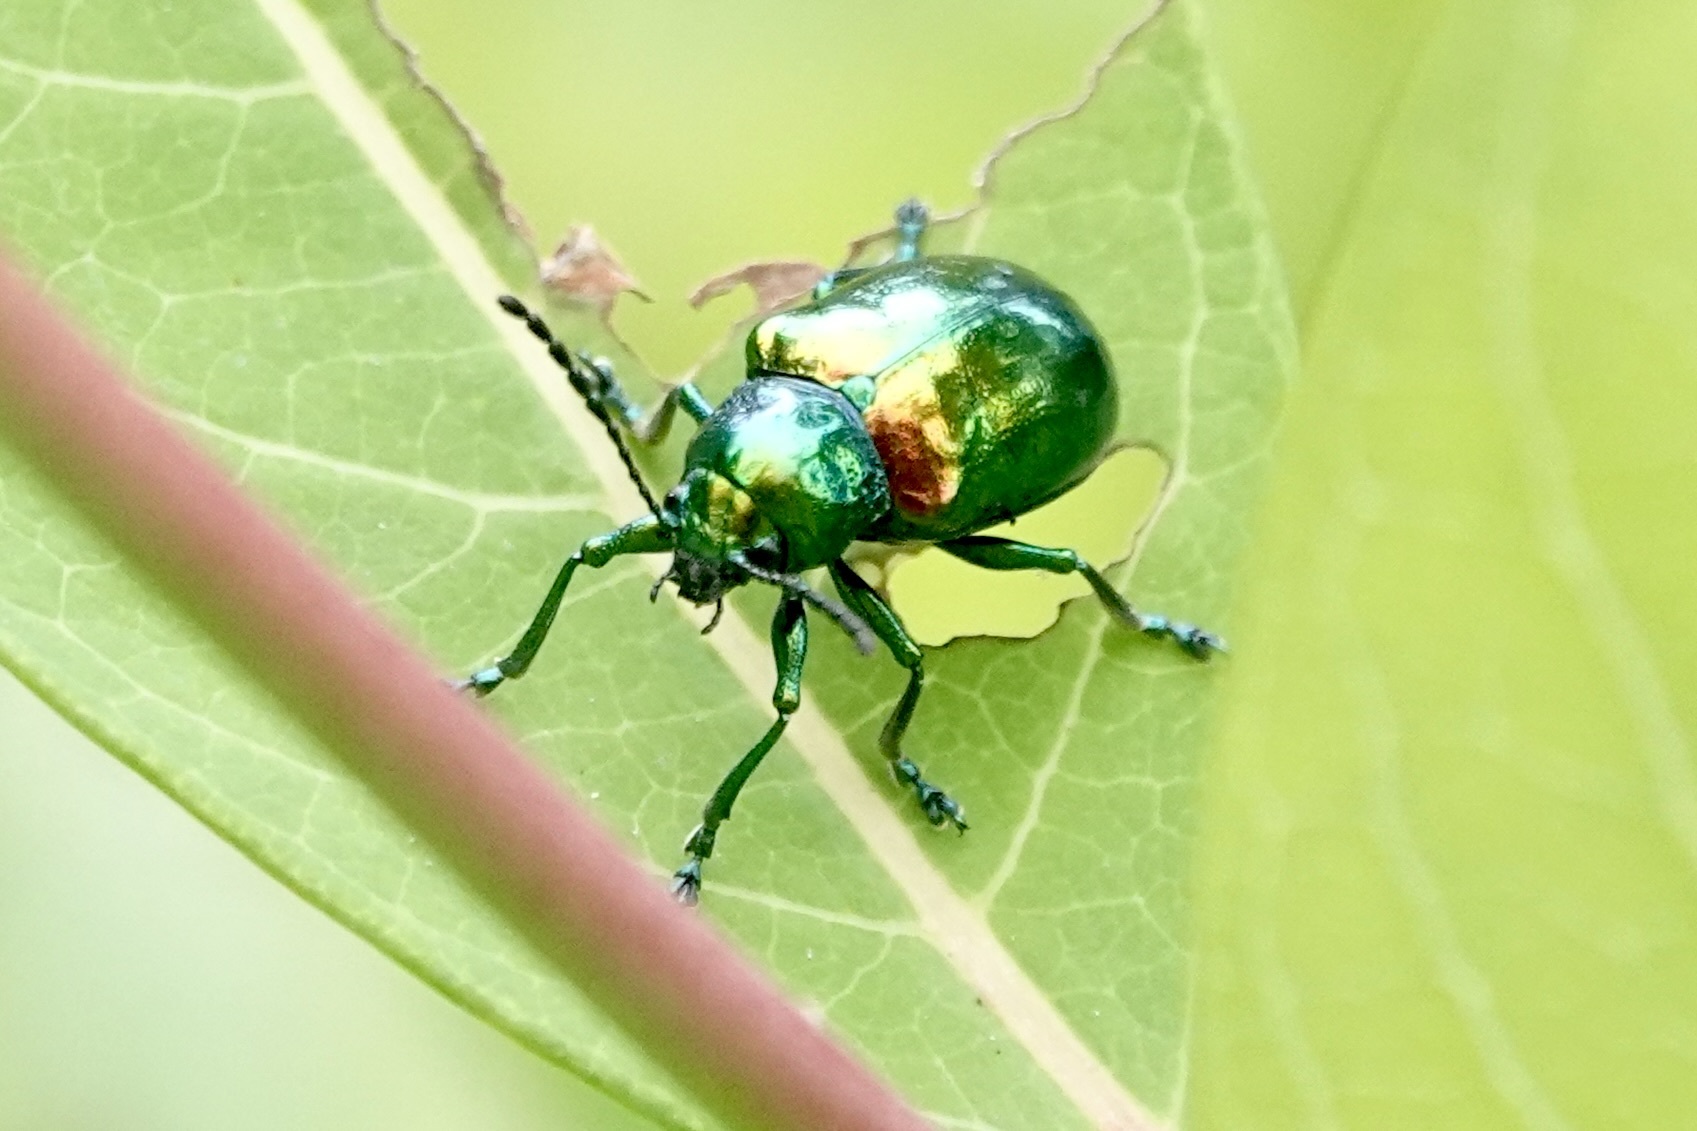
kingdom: Animalia
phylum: Arthropoda
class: Insecta
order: Coleoptera
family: Chrysomelidae
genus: Chrysochus
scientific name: Chrysochus auratus
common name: Dogbane leaf beetle
